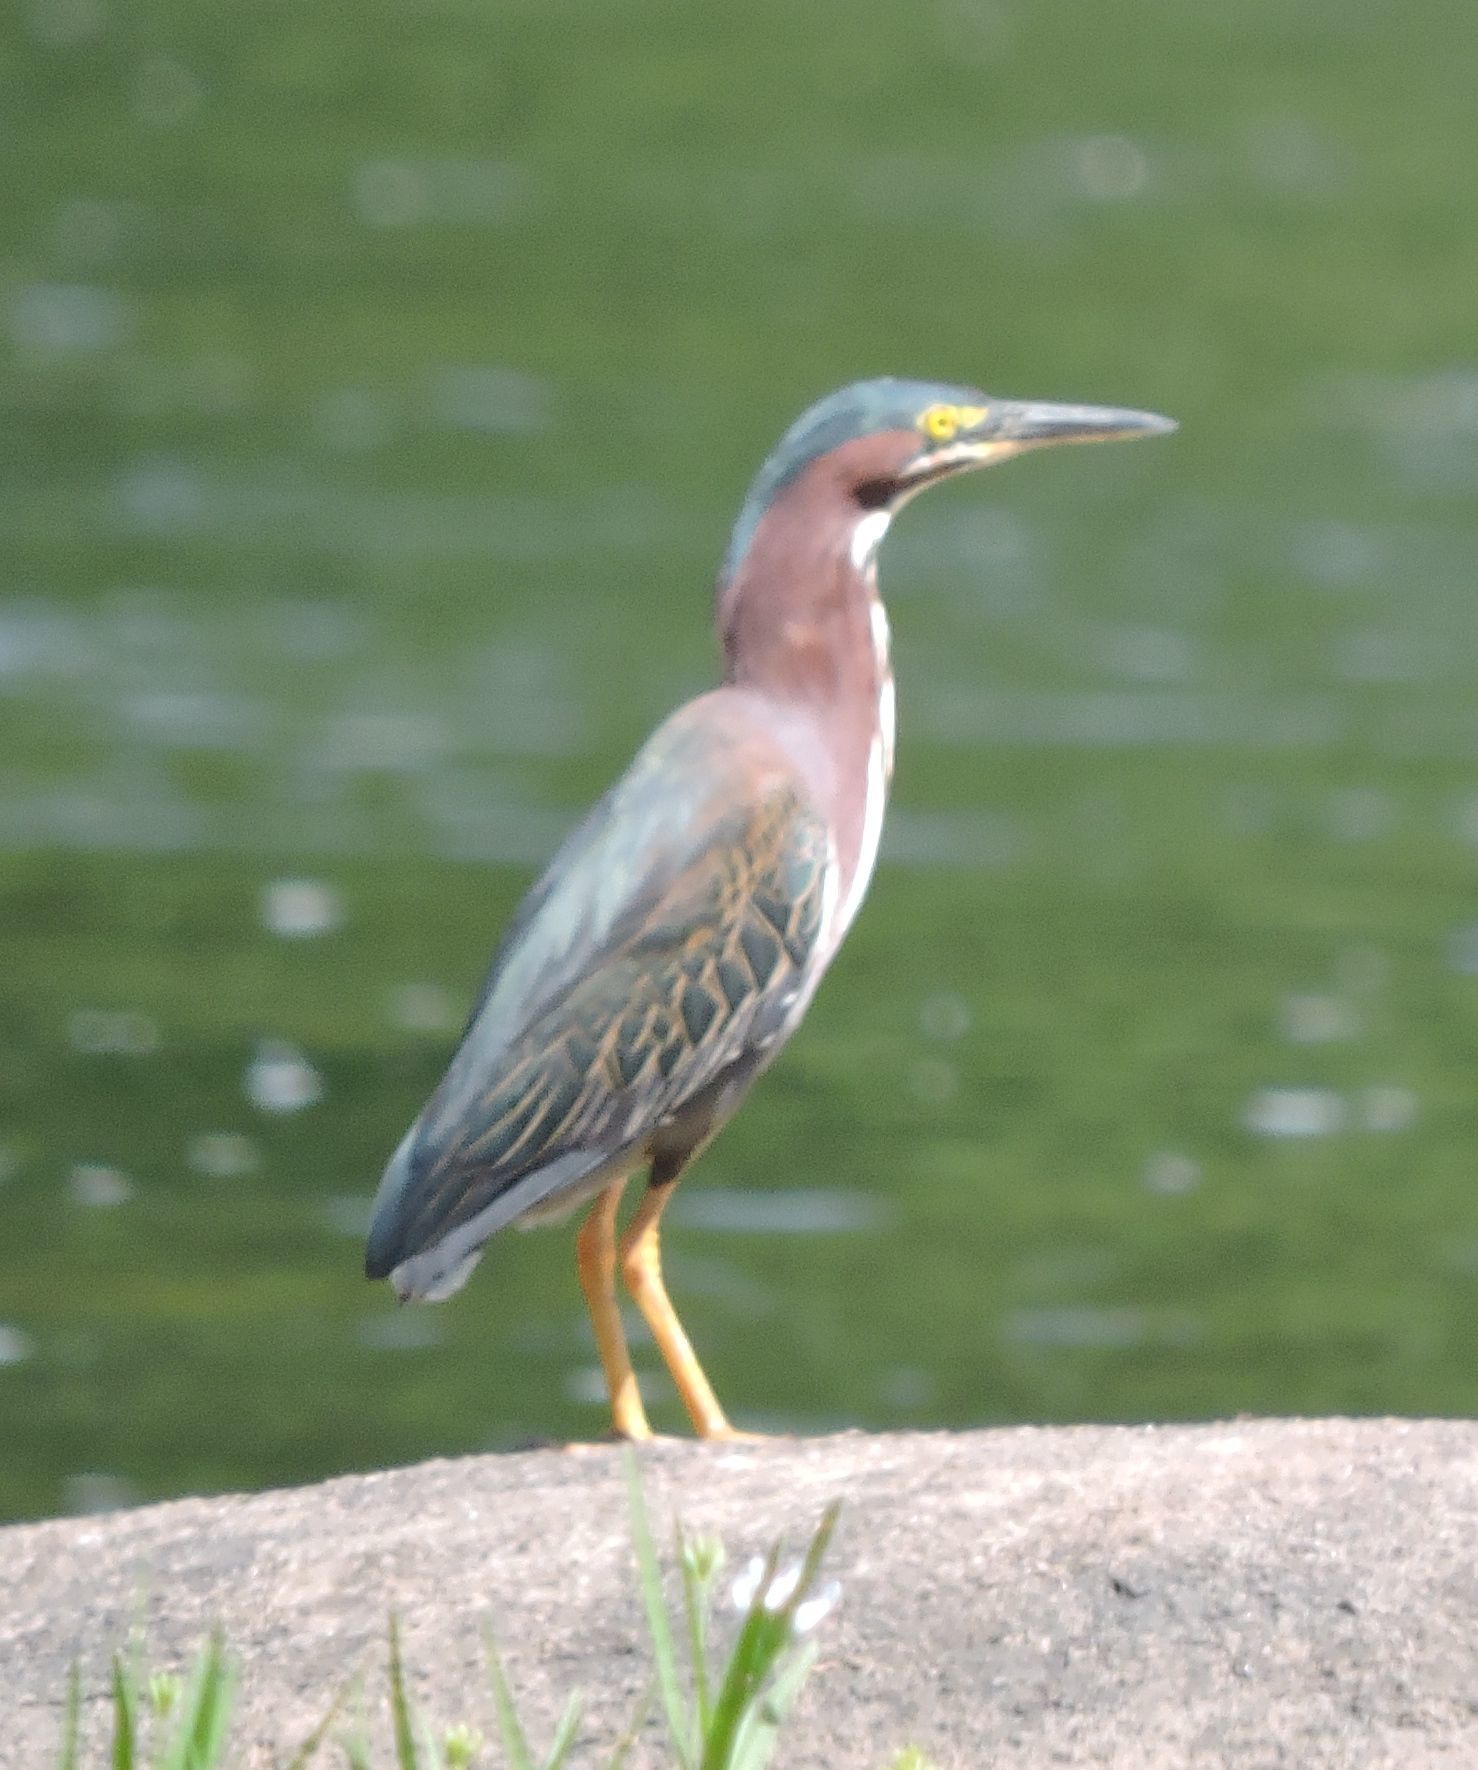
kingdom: Animalia
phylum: Chordata
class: Aves
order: Pelecaniformes
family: Ardeidae
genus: Butorides
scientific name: Butorides virescens
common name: Green heron
